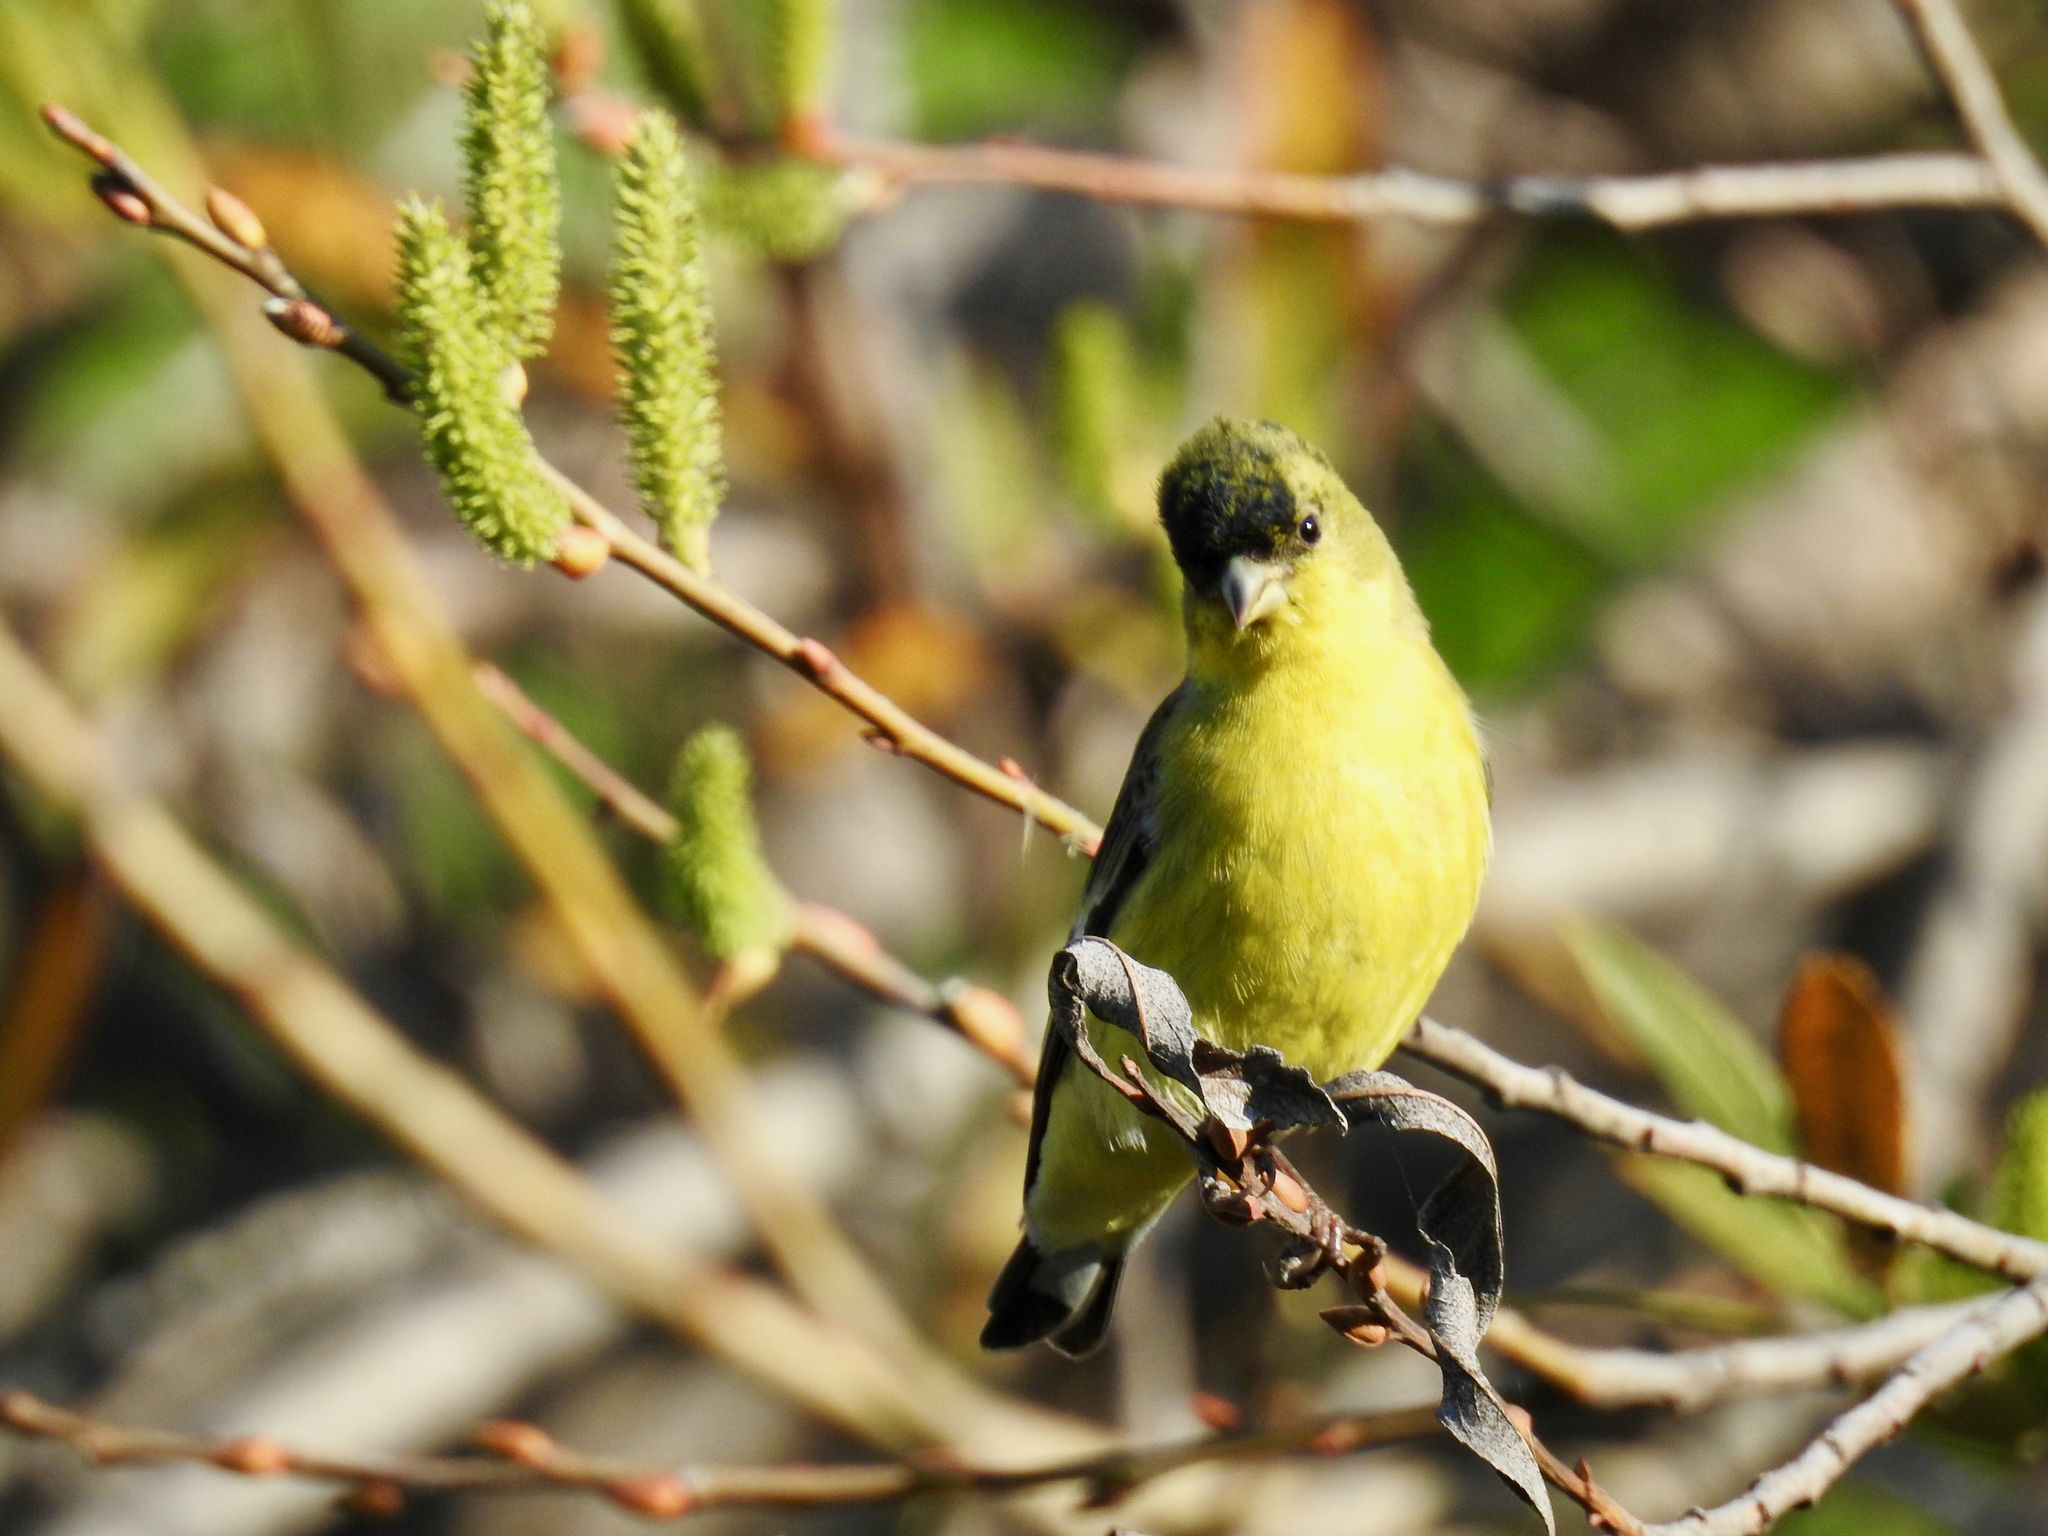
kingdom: Animalia
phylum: Chordata
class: Aves
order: Passeriformes
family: Fringillidae
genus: Spinus
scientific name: Spinus psaltria
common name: Lesser goldfinch
